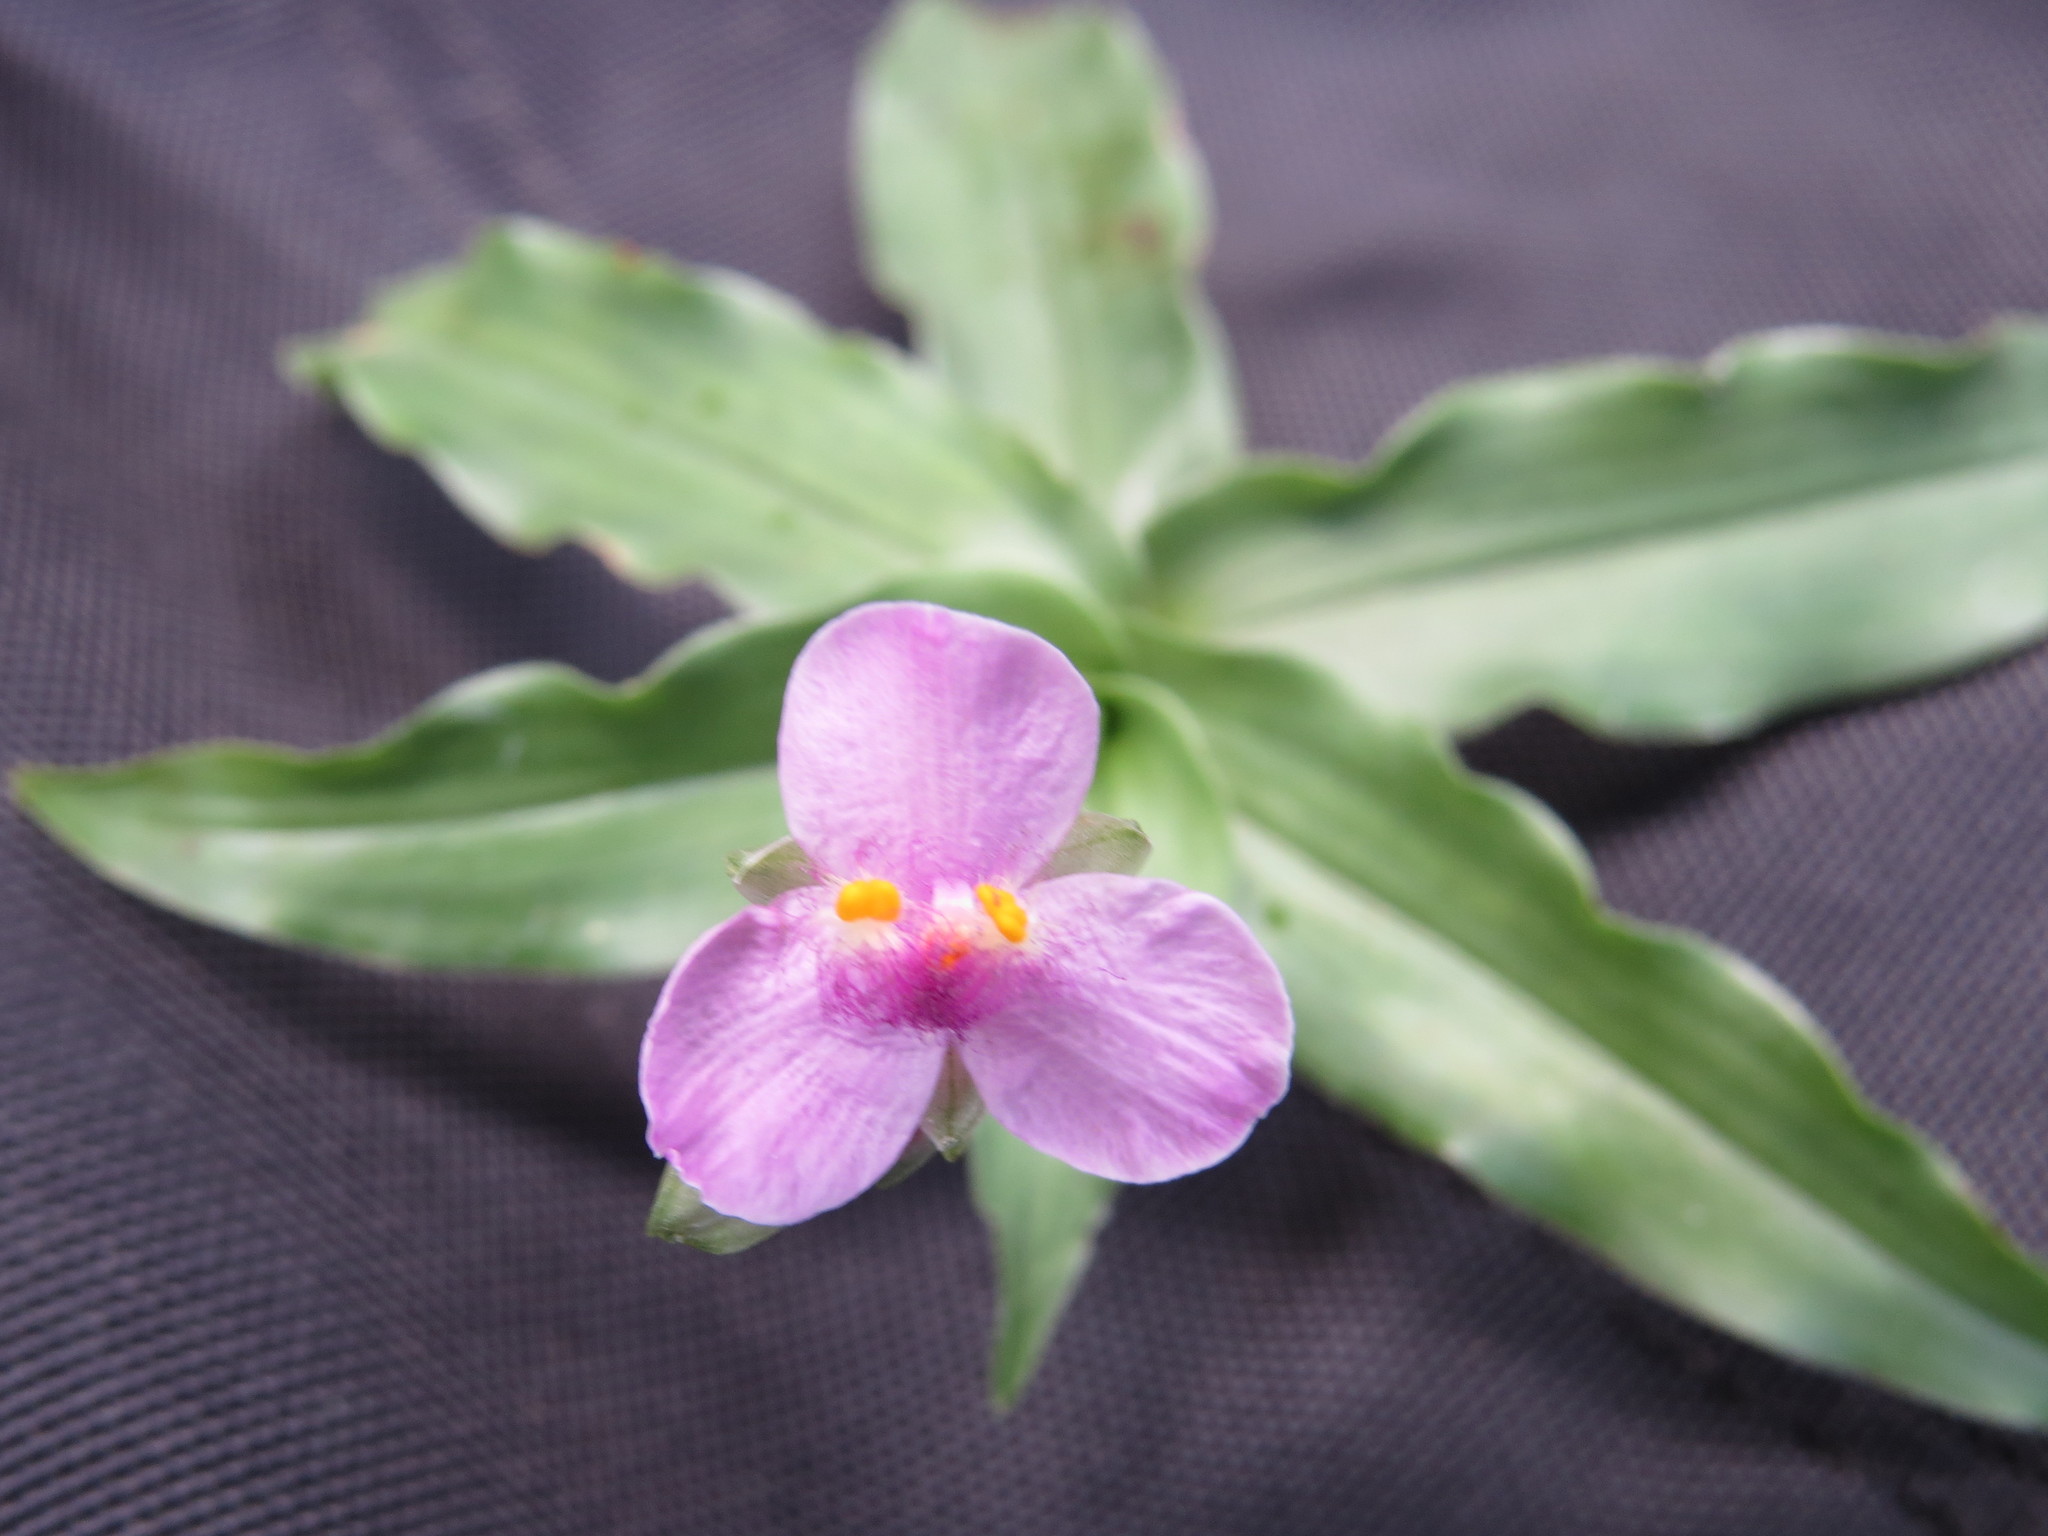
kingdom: Plantae
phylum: Tracheophyta
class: Liliopsida
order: Commelinales
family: Commelinaceae
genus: Callisia
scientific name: Callisia diuretica
